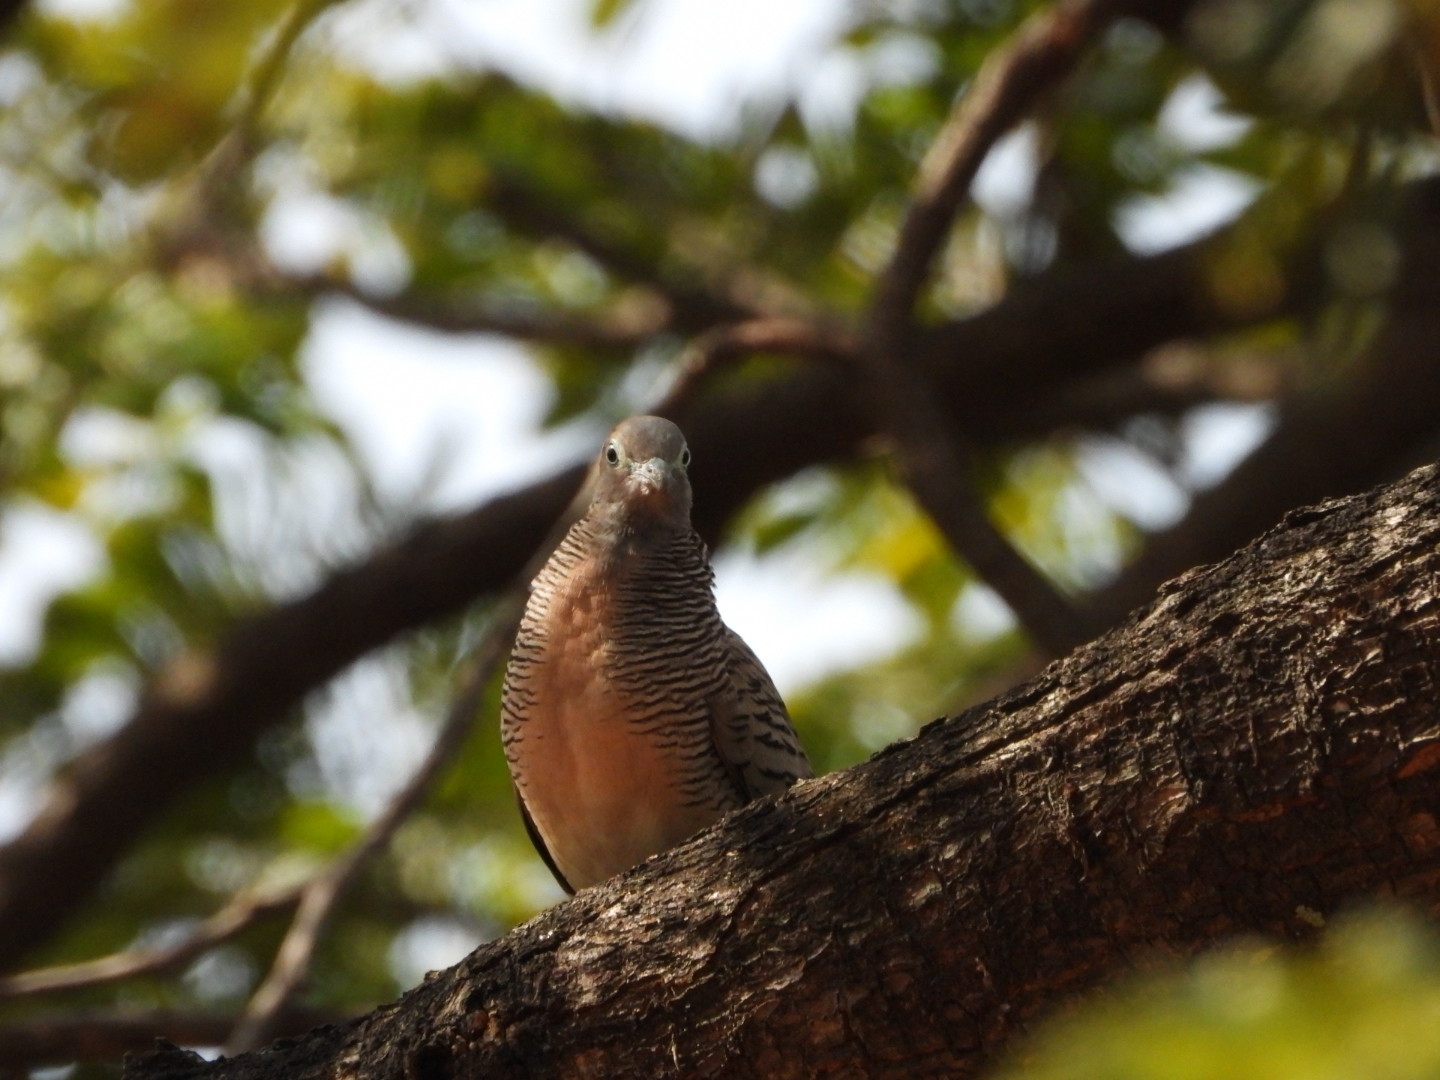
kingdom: Animalia
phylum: Chordata
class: Aves
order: Columbiformes
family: Columbidae
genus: Geopelia
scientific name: Geopelia striata
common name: Zebra dove
